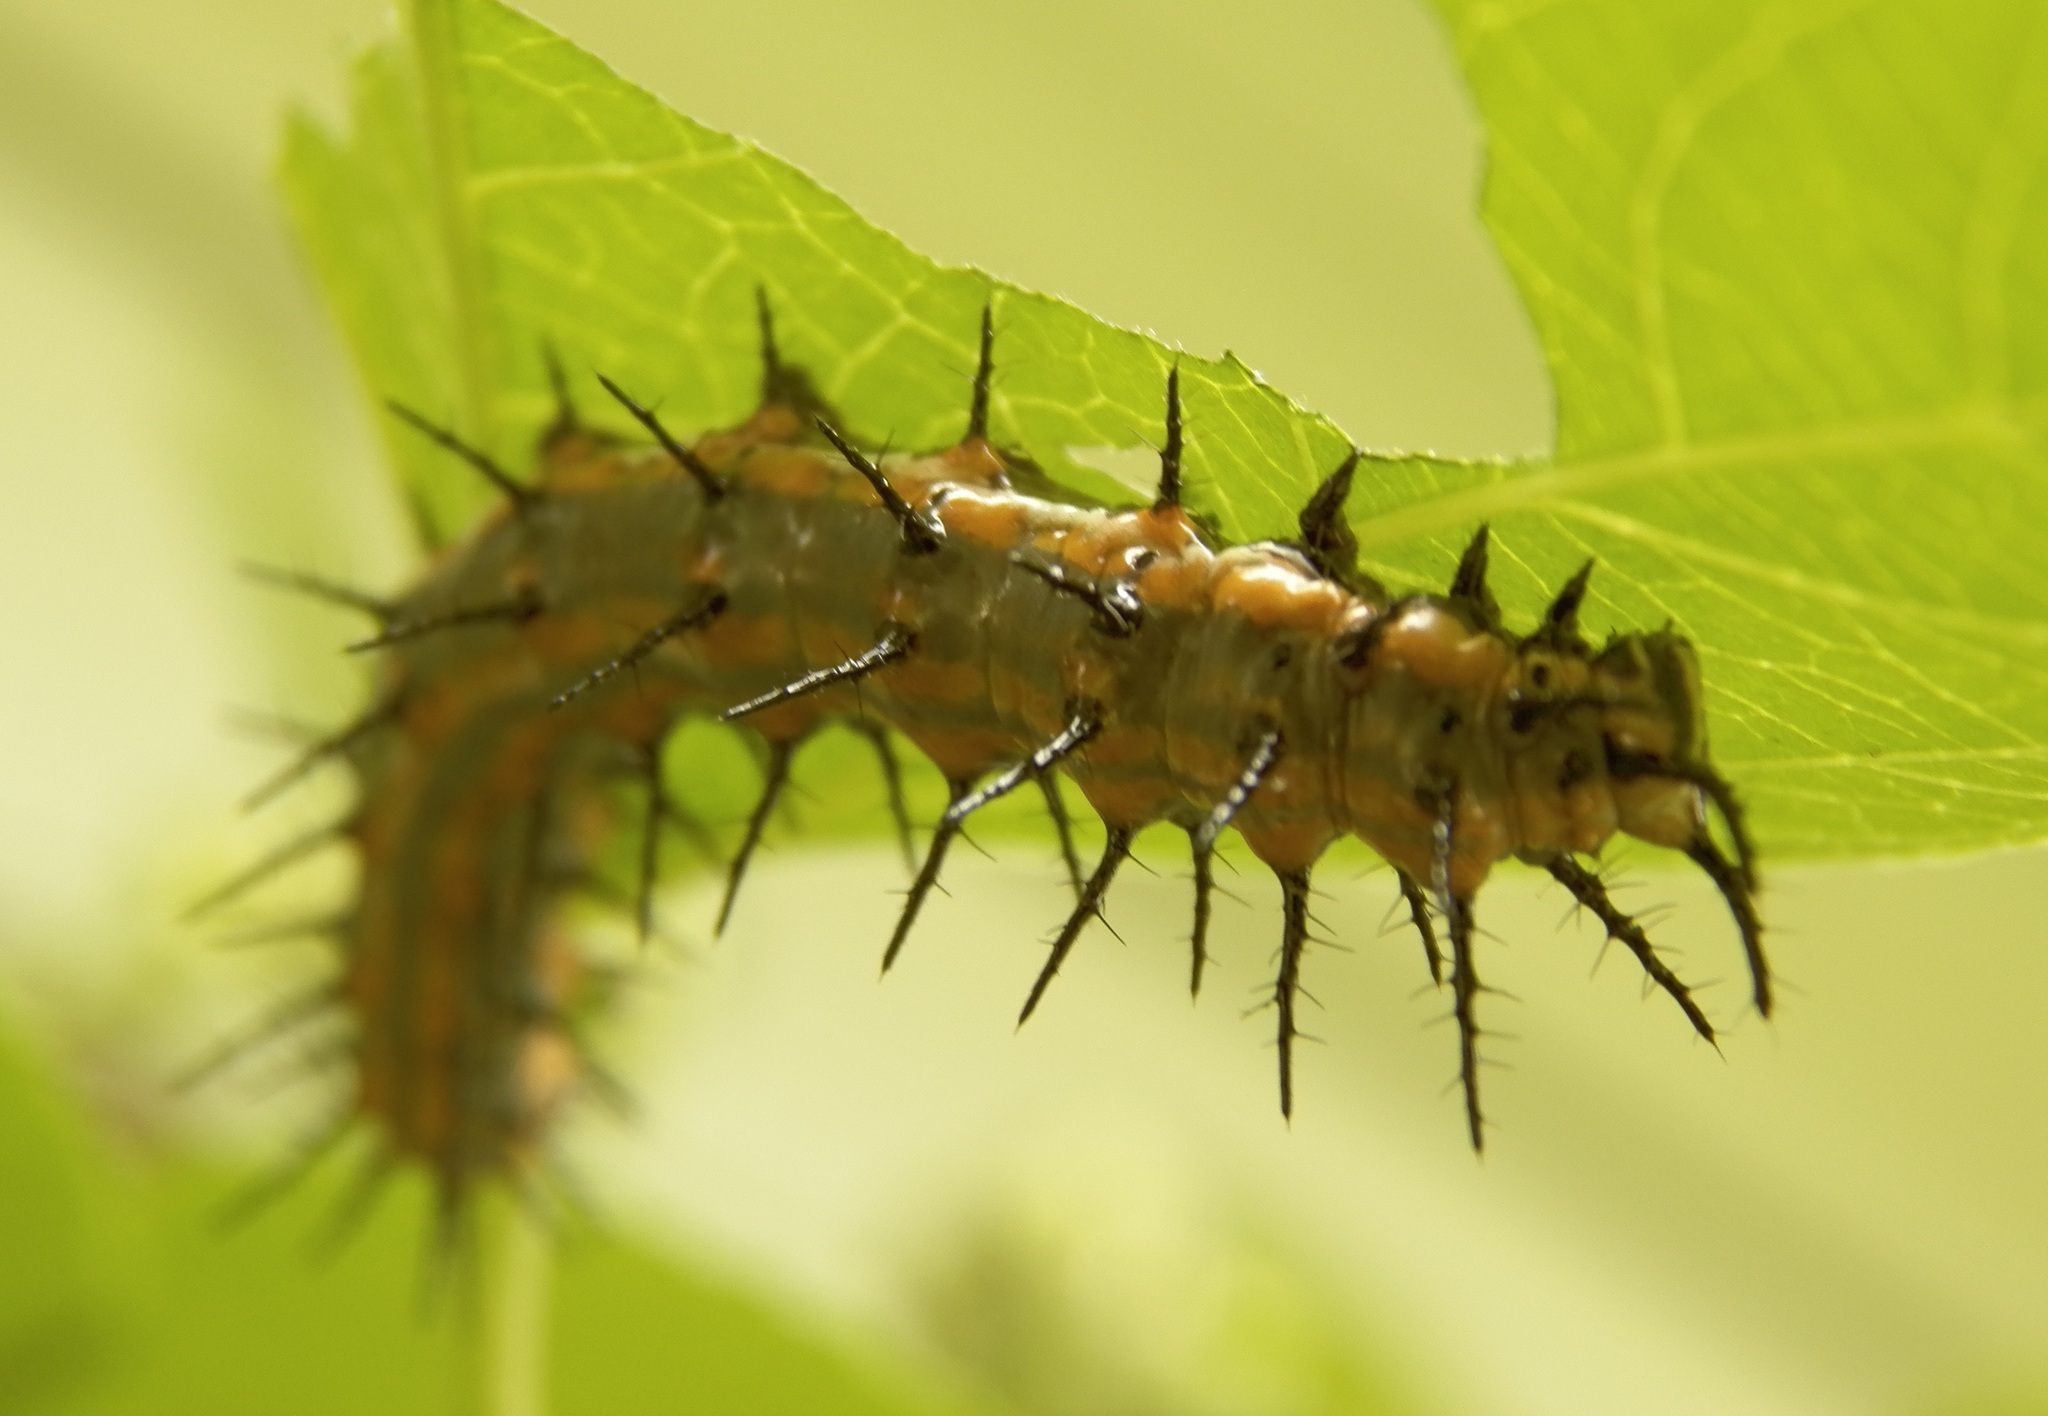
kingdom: Animalia
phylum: Arthropoda
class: Insecta
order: Lepidoptera
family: Nymphalidae
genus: Dione
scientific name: Dione vanillae
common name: Gulf fritillary
